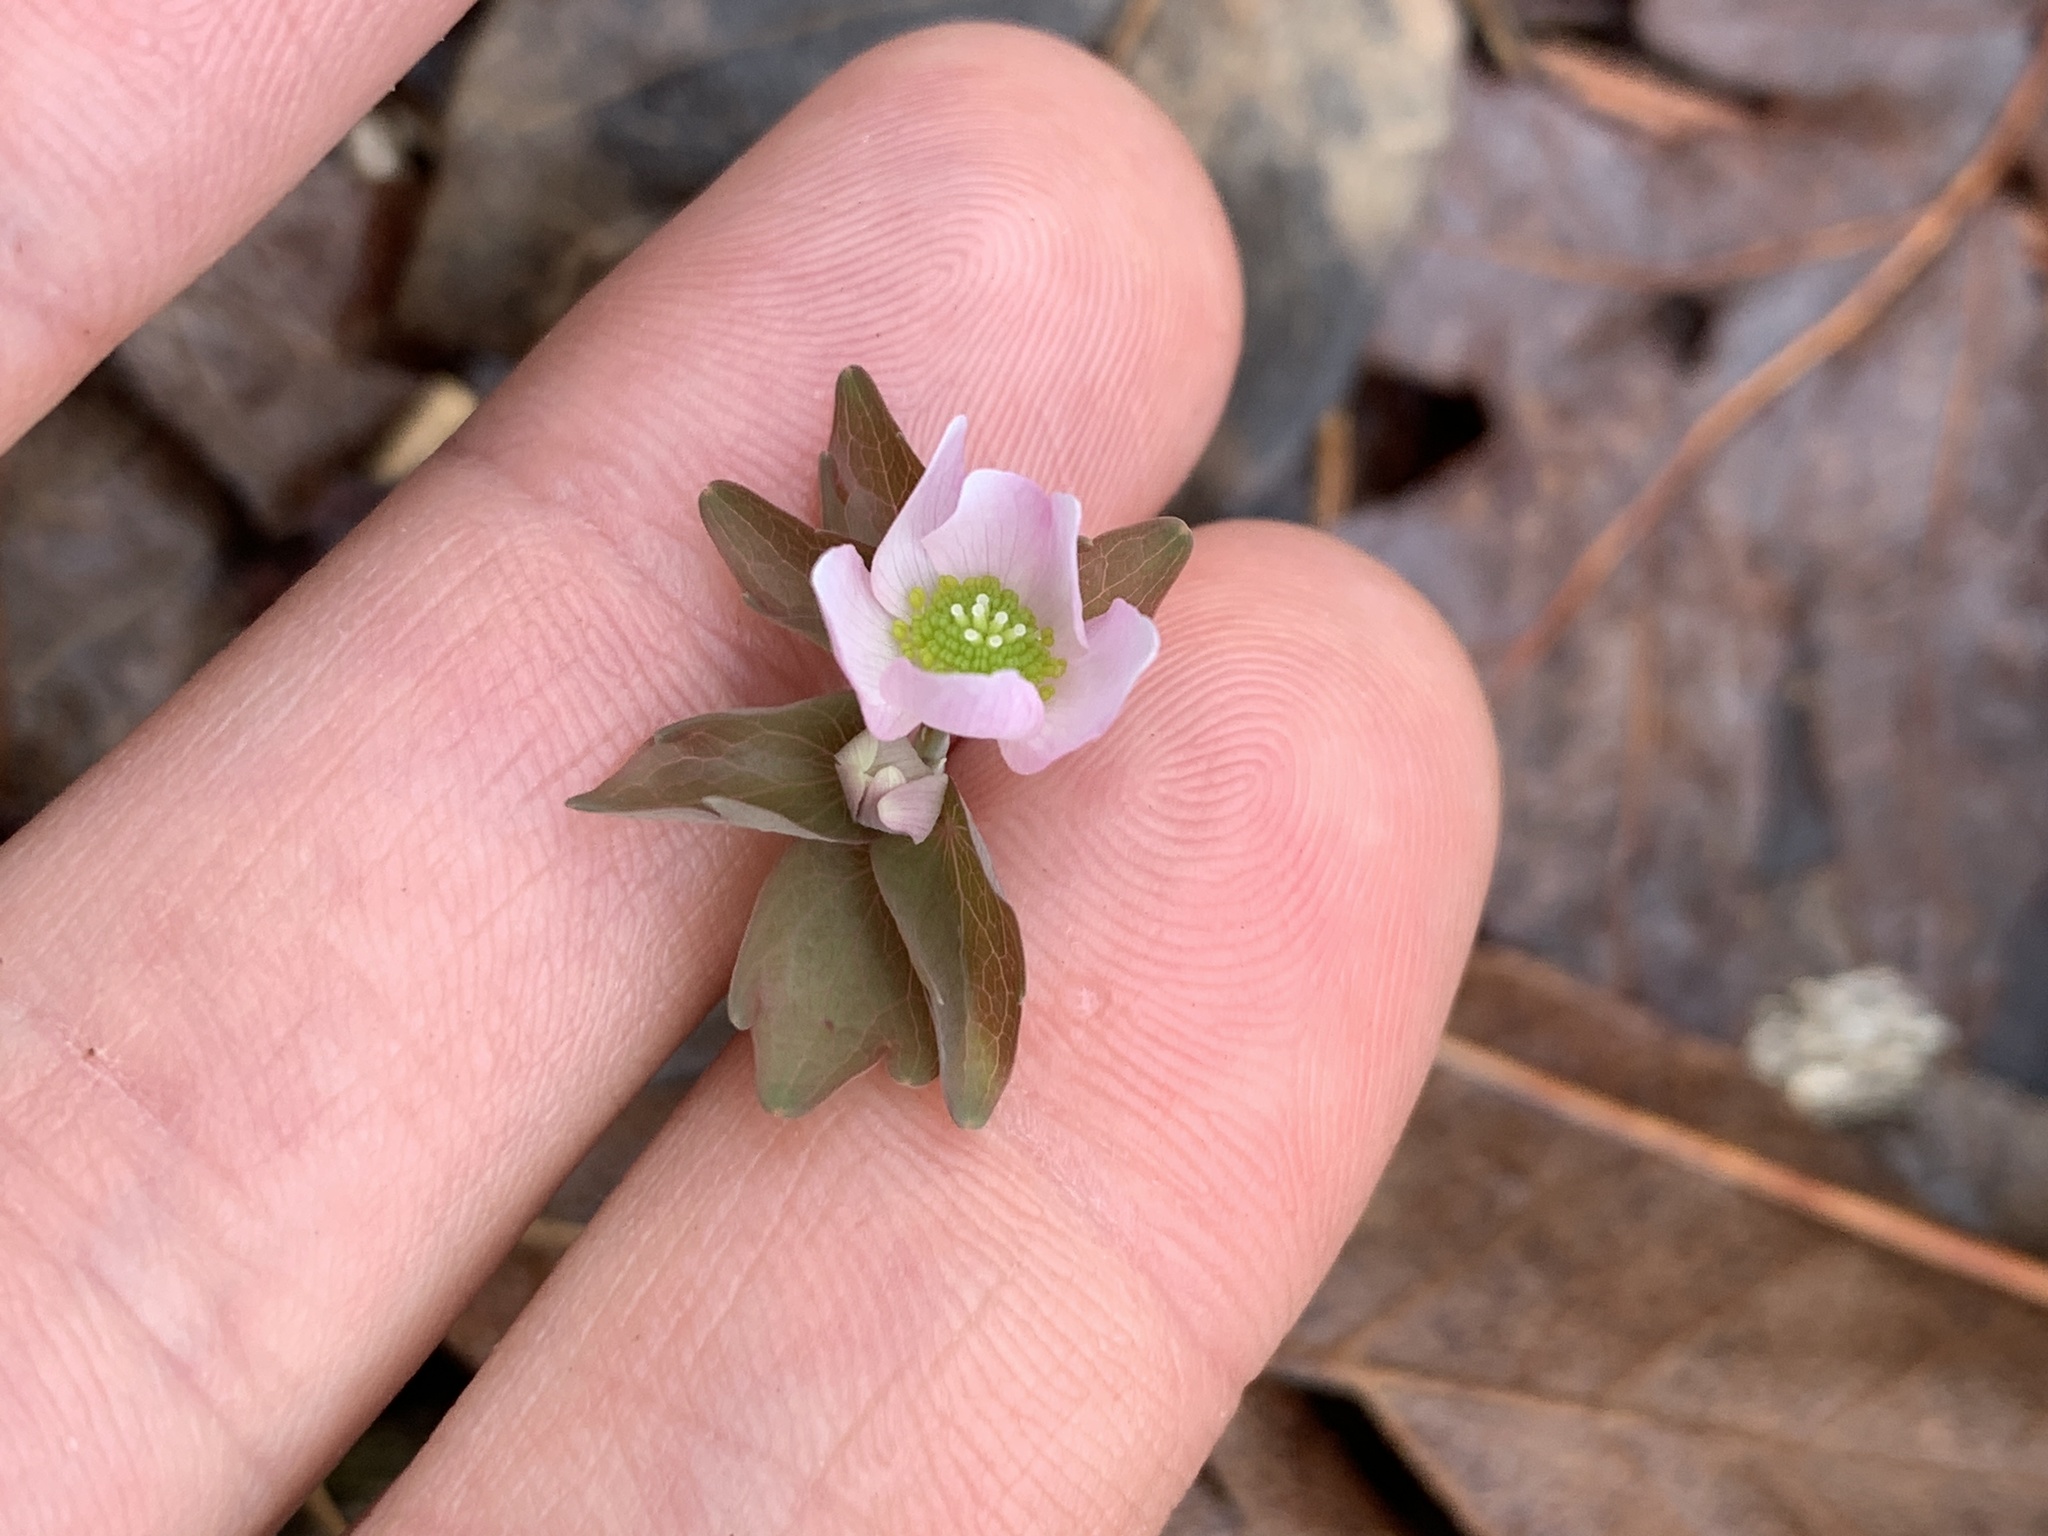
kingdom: Plantae
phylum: Tracheophyta
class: Magnoliopsida
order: Ranunculales
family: Ranunculaceae
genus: Thalictrum
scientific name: Thalictrum thalictroides
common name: Rue-anemone
